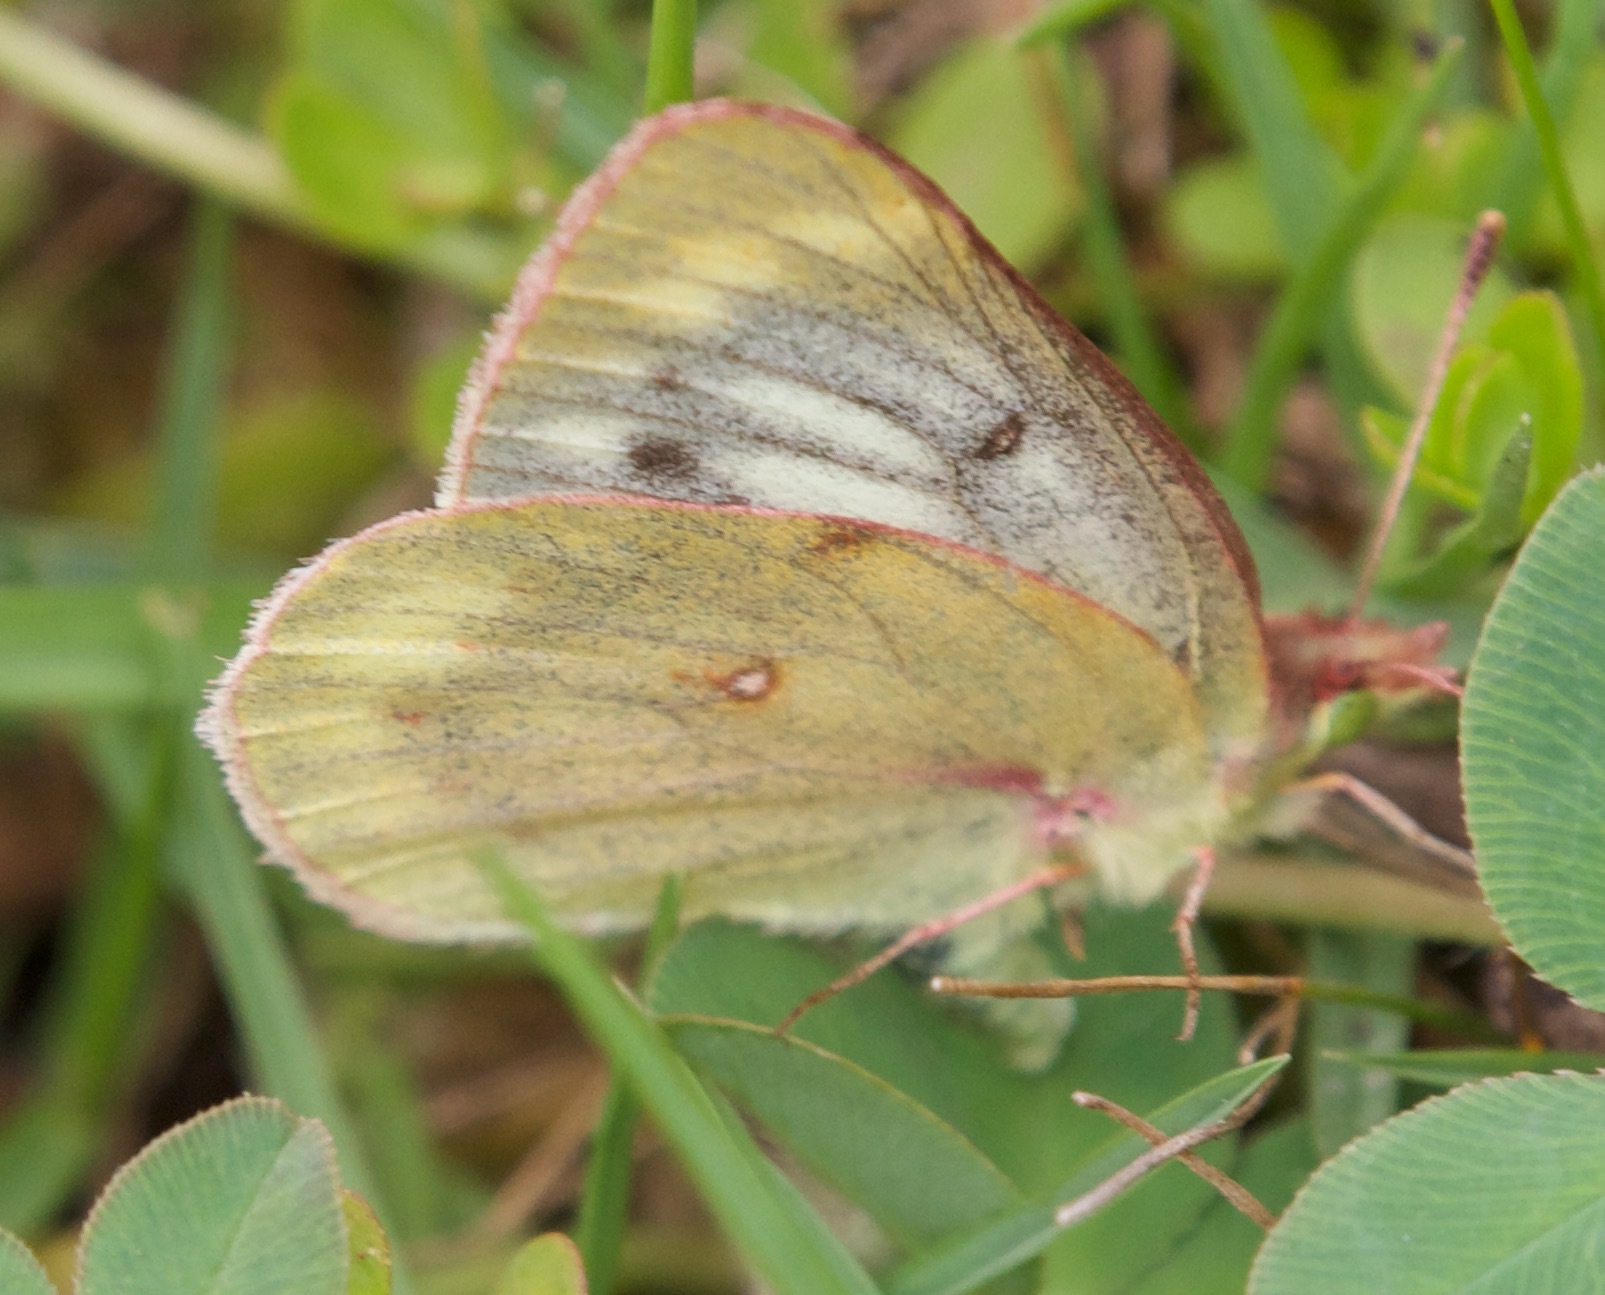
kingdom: Animalia
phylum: Arthropoda
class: Insecta
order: Lepidoptera
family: Pieridae
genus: Colias
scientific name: Colias vauthierii
